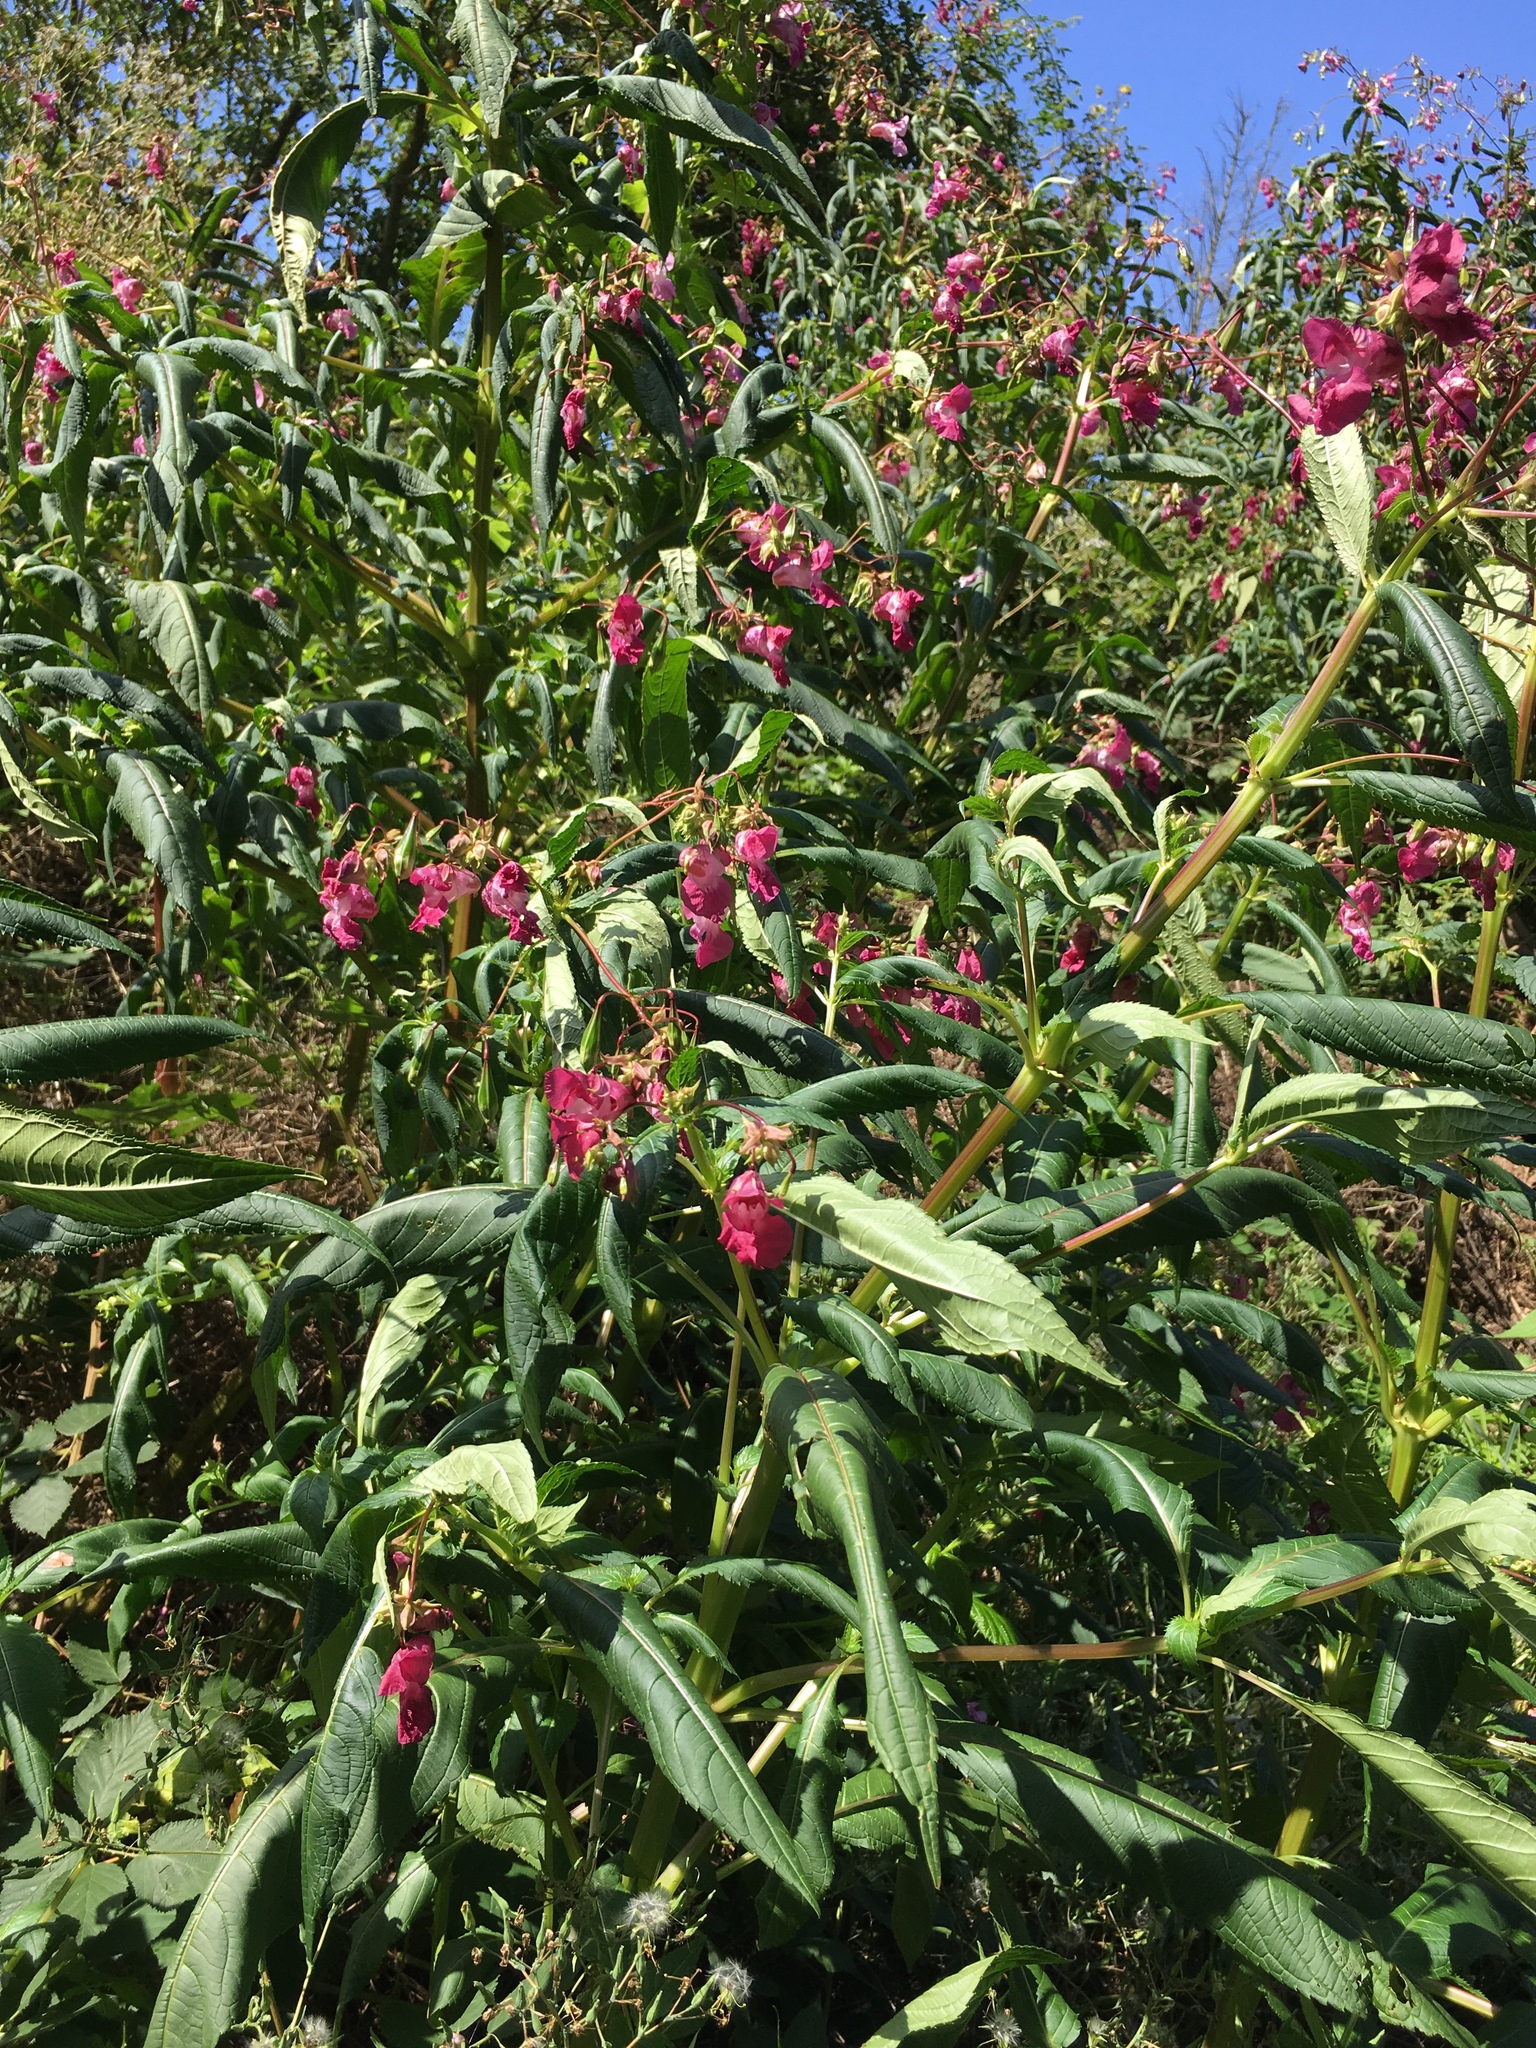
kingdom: Plantae
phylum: Tracheophyta
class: Magnoliopsida
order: Ericales
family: Balsaminaceae
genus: Impatiens
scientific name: Impatiens glandulifera
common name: Himalayan balsam
